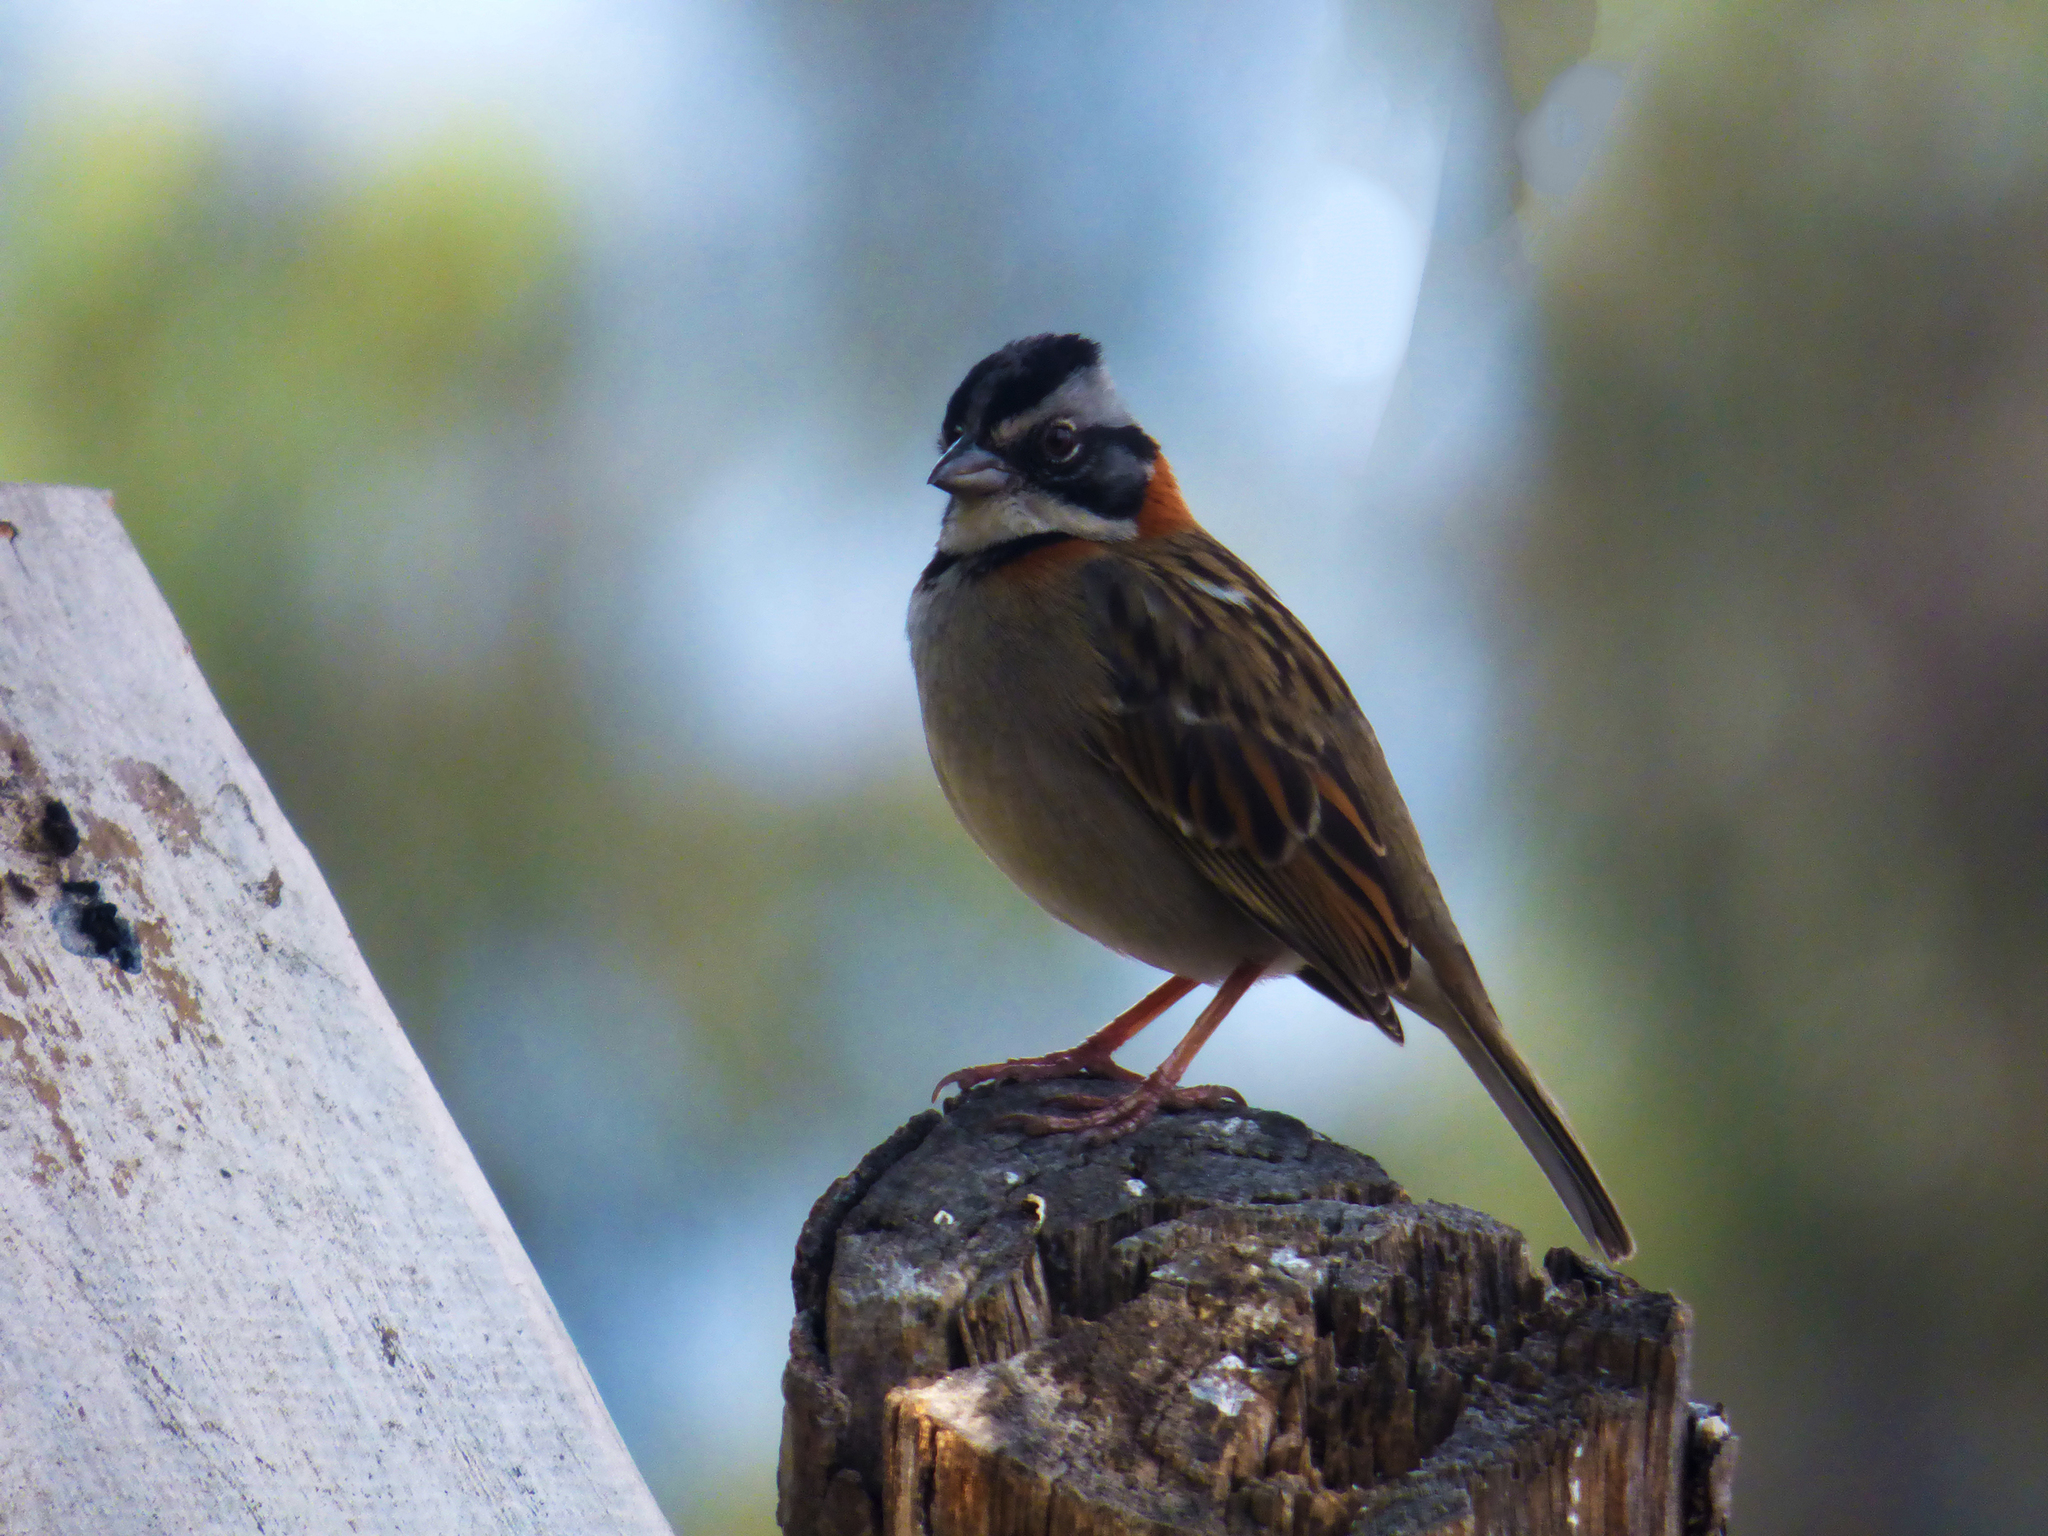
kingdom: Animalia
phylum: Chordata
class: Aves
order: Passeriformes
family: Passerellidae
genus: Zonotrichia
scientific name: Zonotrichia capensis
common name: Rufous-collared sparrow
